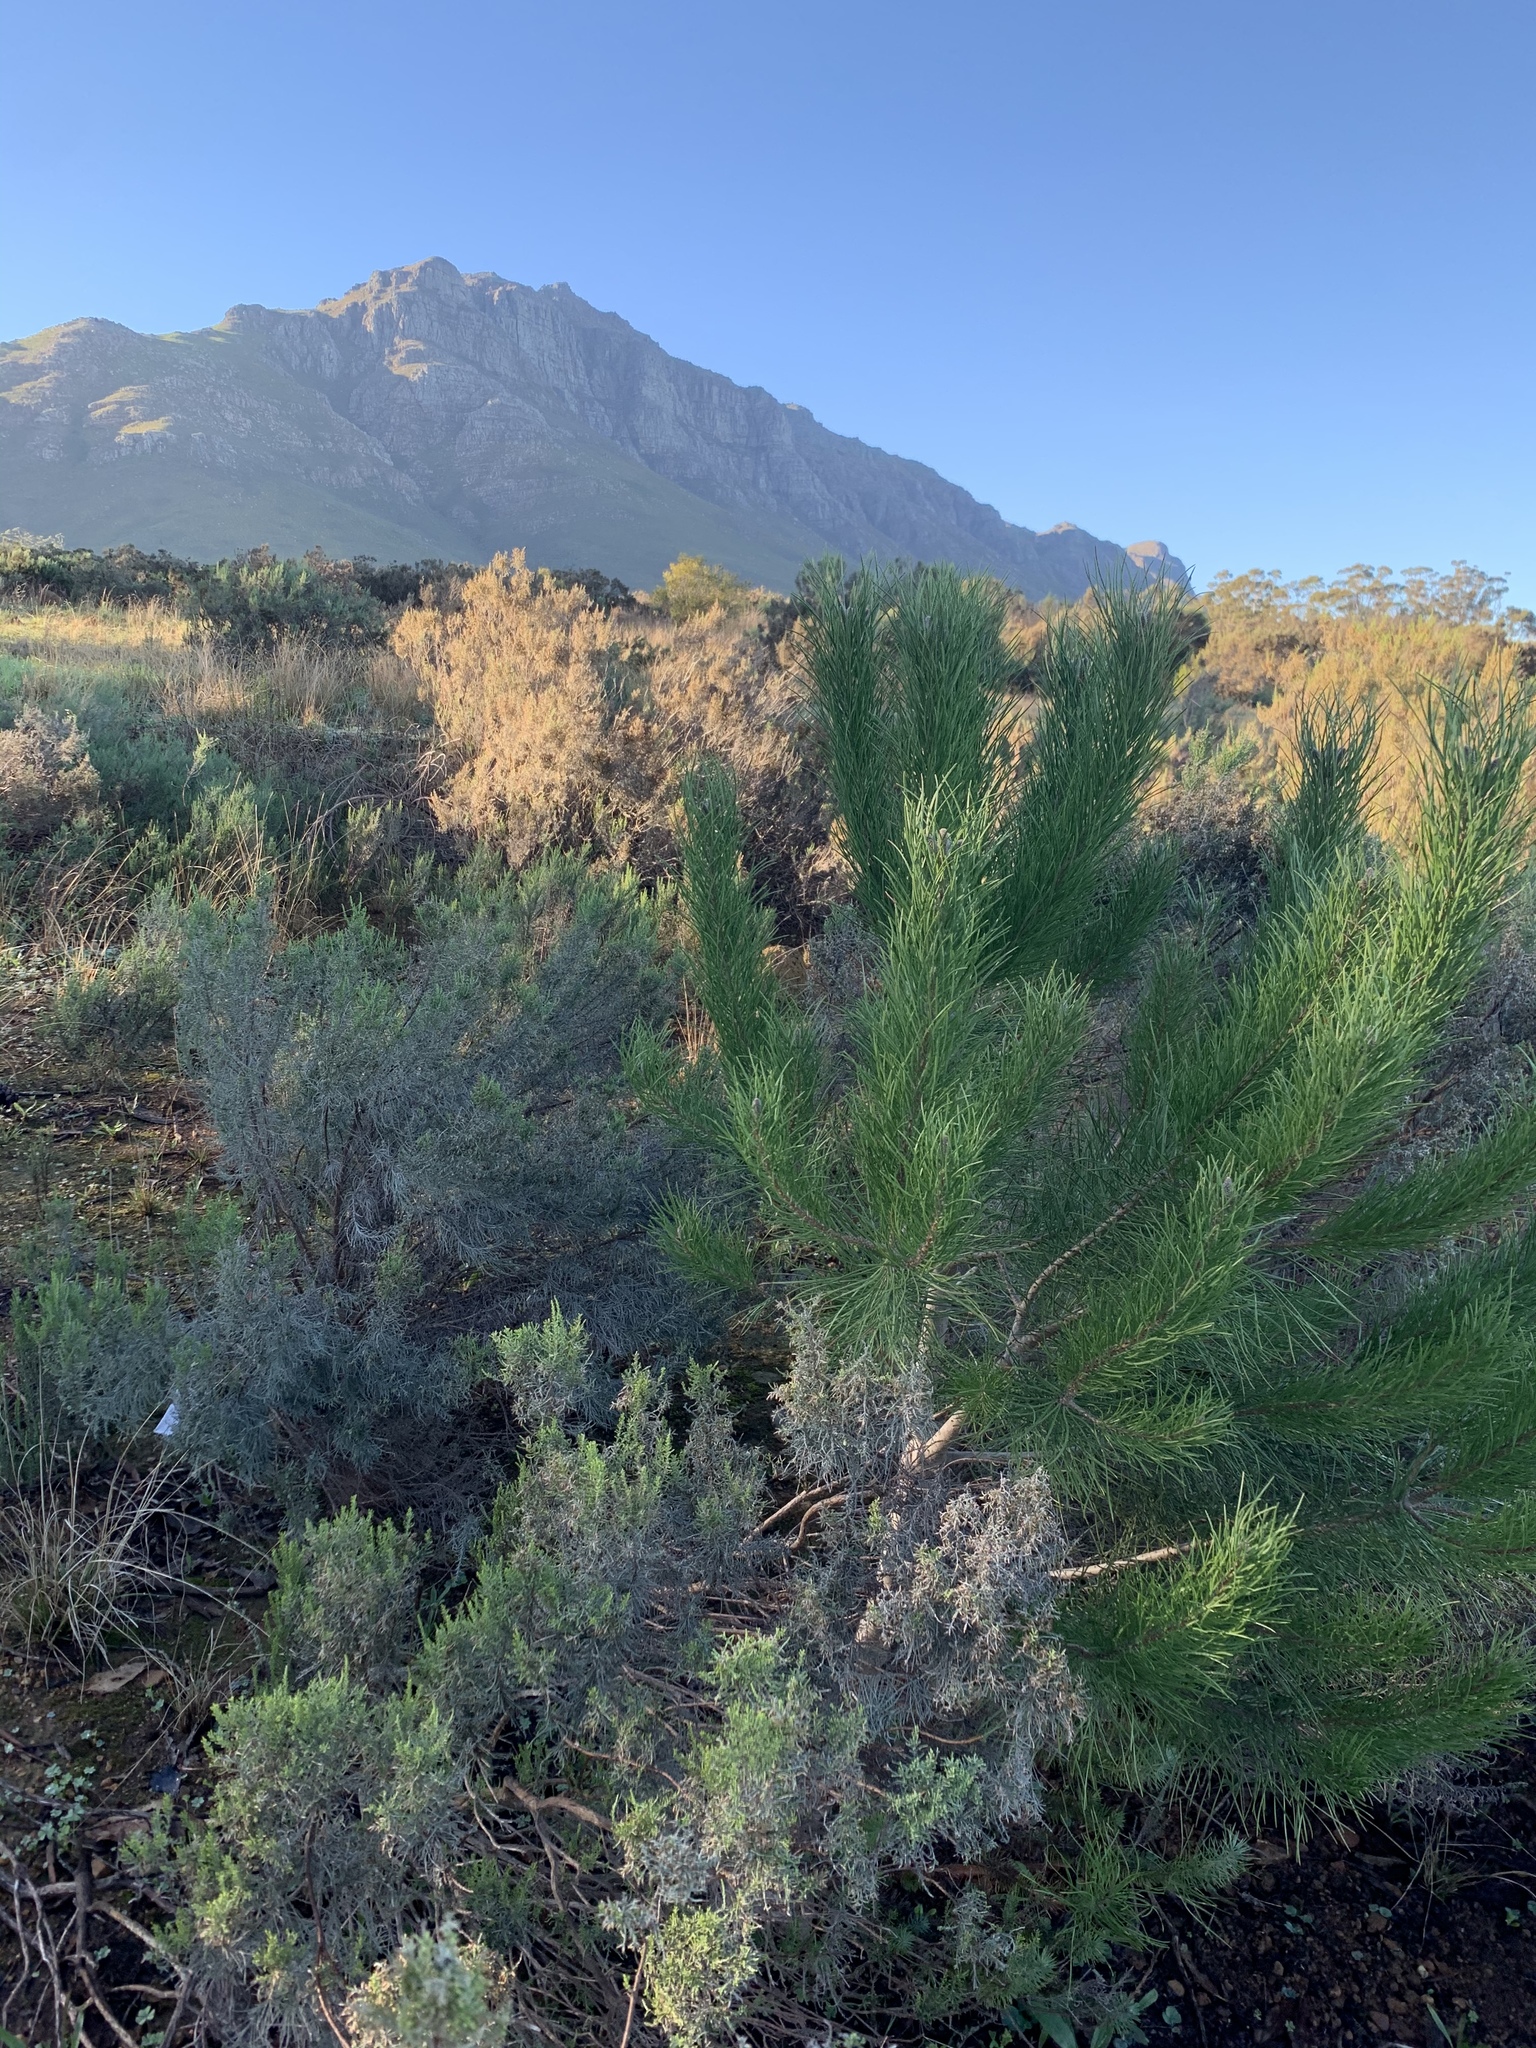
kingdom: Plantae
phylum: Tracheophyta
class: Pinopsida
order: Pinales
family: Pinaceae
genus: Pinus
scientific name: Pinus pinaster
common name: Maritime pine
